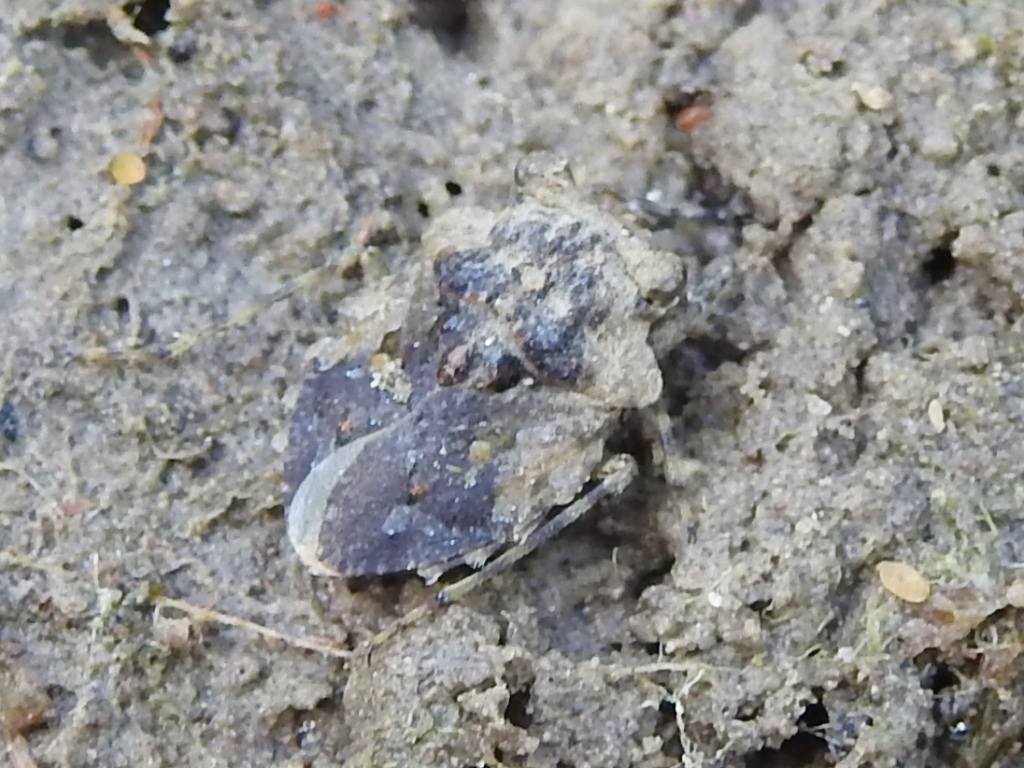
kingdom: Animalia
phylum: Arthropoda
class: Insecta
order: Hemiptera
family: Gelastocoridae
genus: Gelastocoris
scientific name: Gelastocoris oculatus
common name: Toad bug
